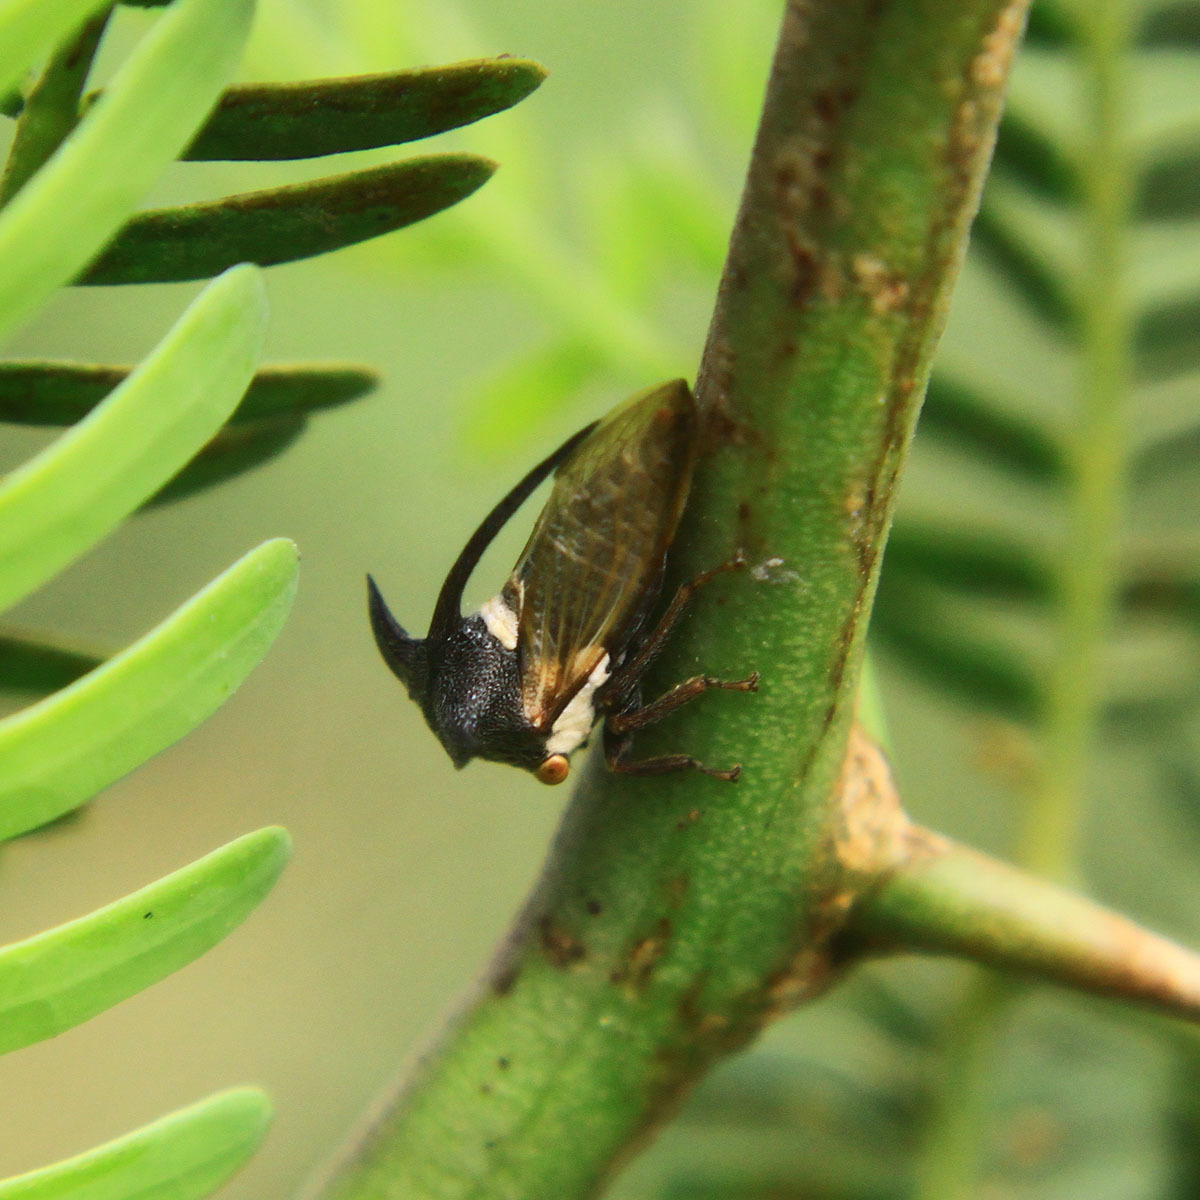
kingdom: Animalia
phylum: Arthropoda
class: Insecta
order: Hemiptera
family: Membracidae
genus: Leptocentrus
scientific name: Leptocentrus taurus
